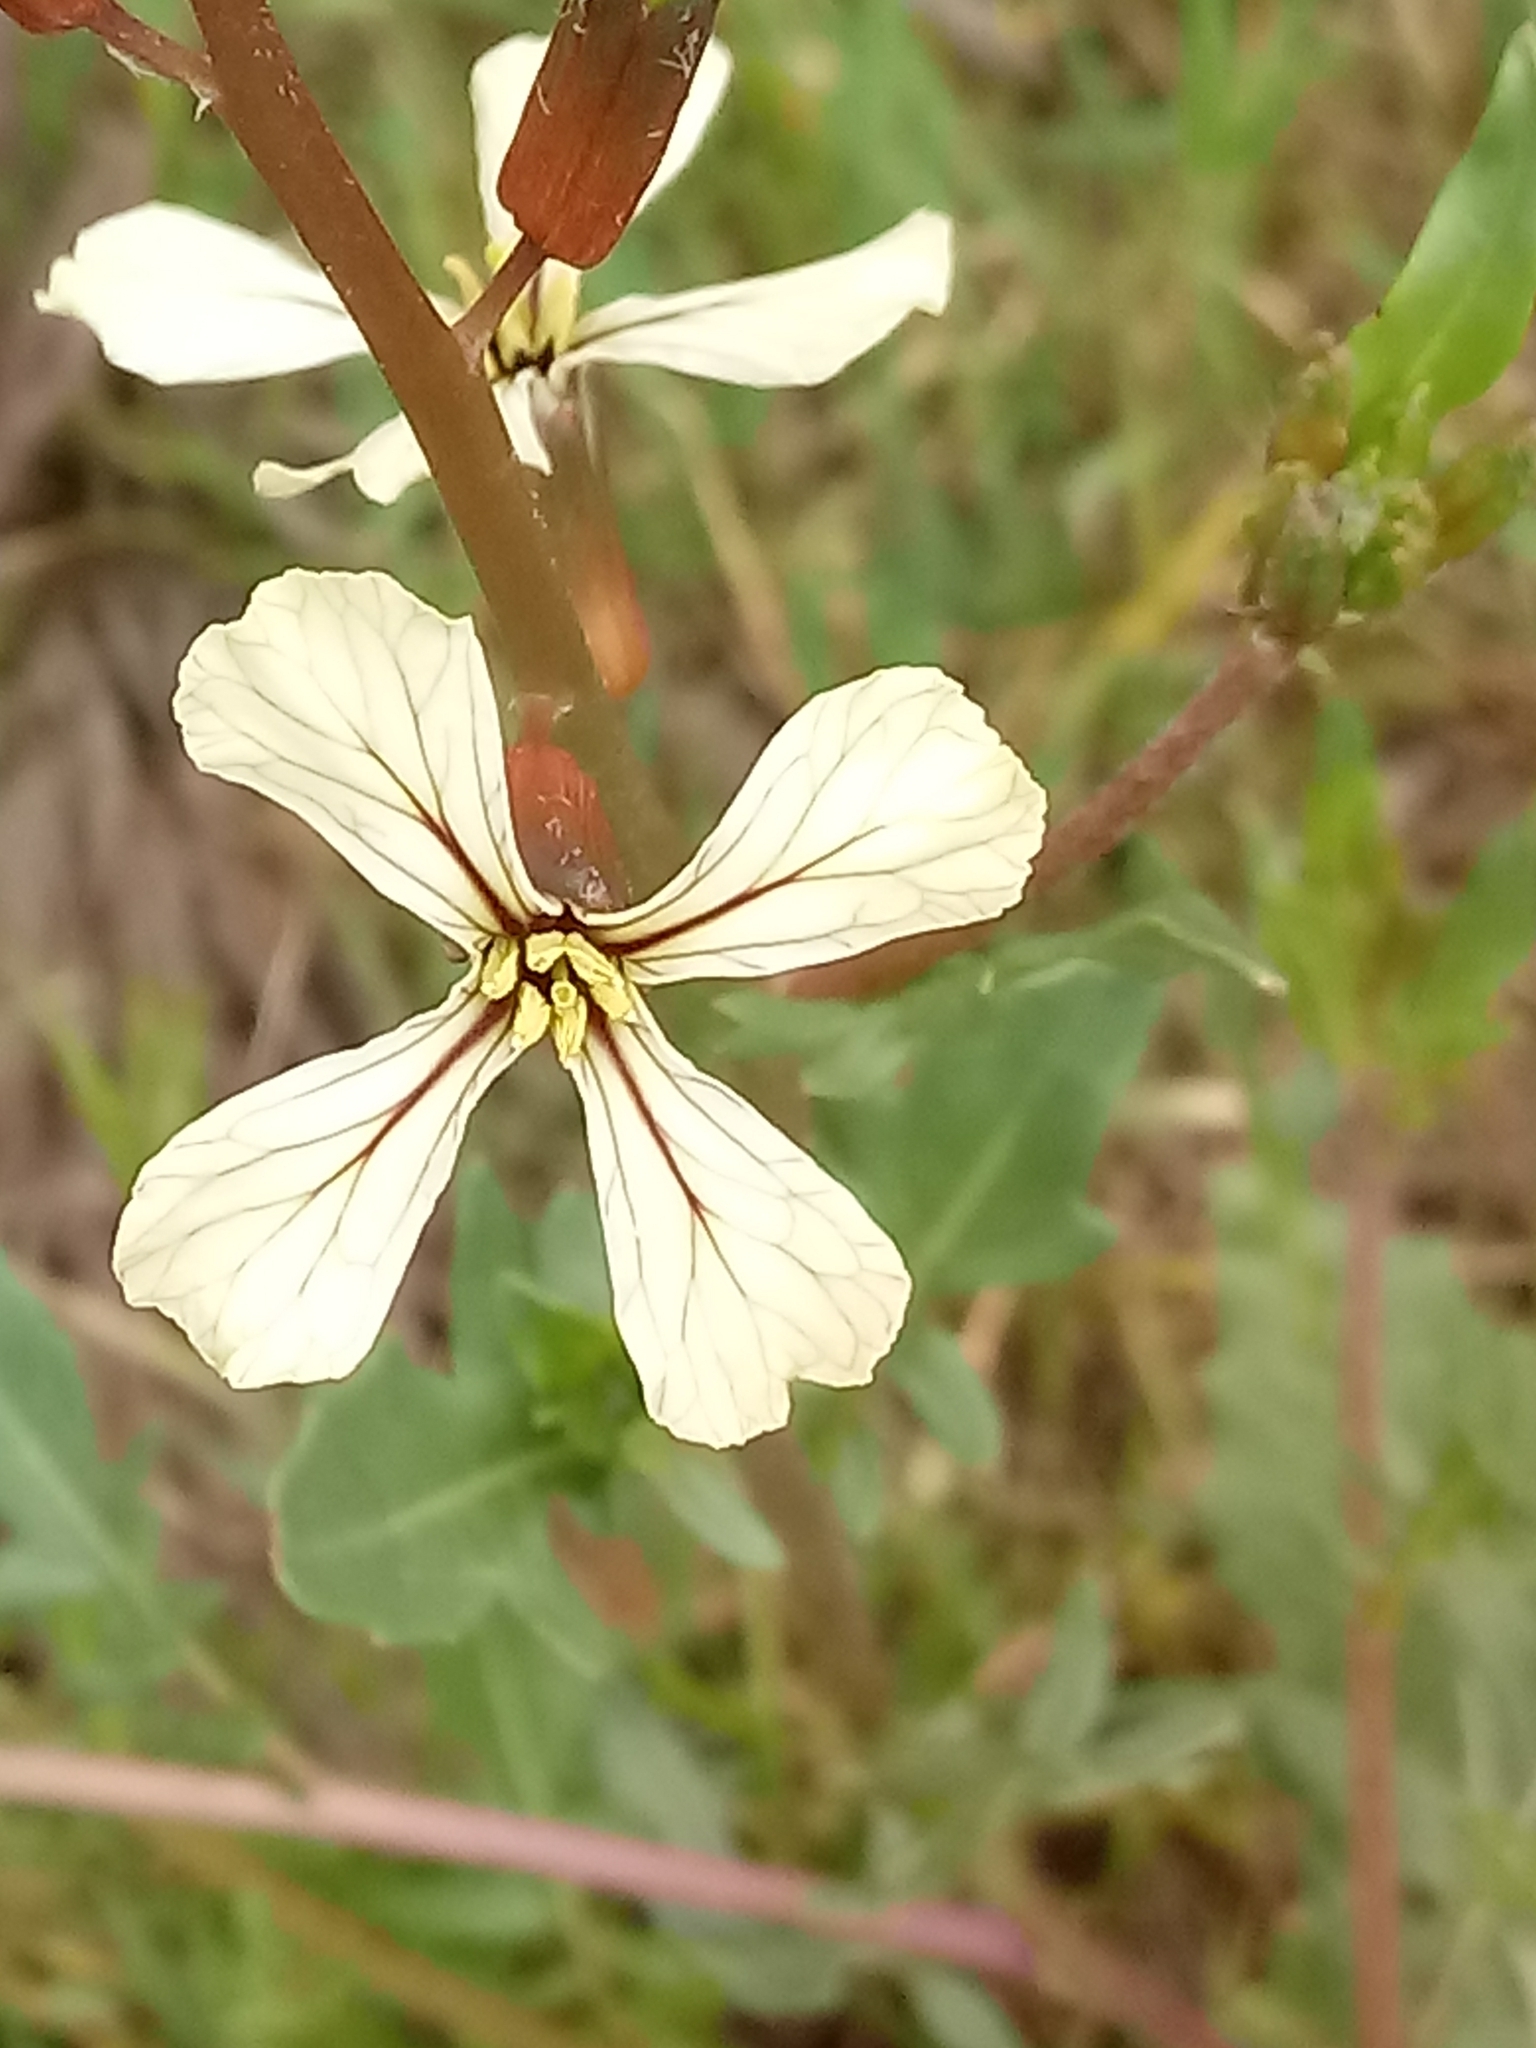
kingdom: Plantae
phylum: Tracheophyta
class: Magnoliopsida
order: Brassicales
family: Brassicaceae
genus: Eruca
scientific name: Eruca vesicaria
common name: Garden rocket
